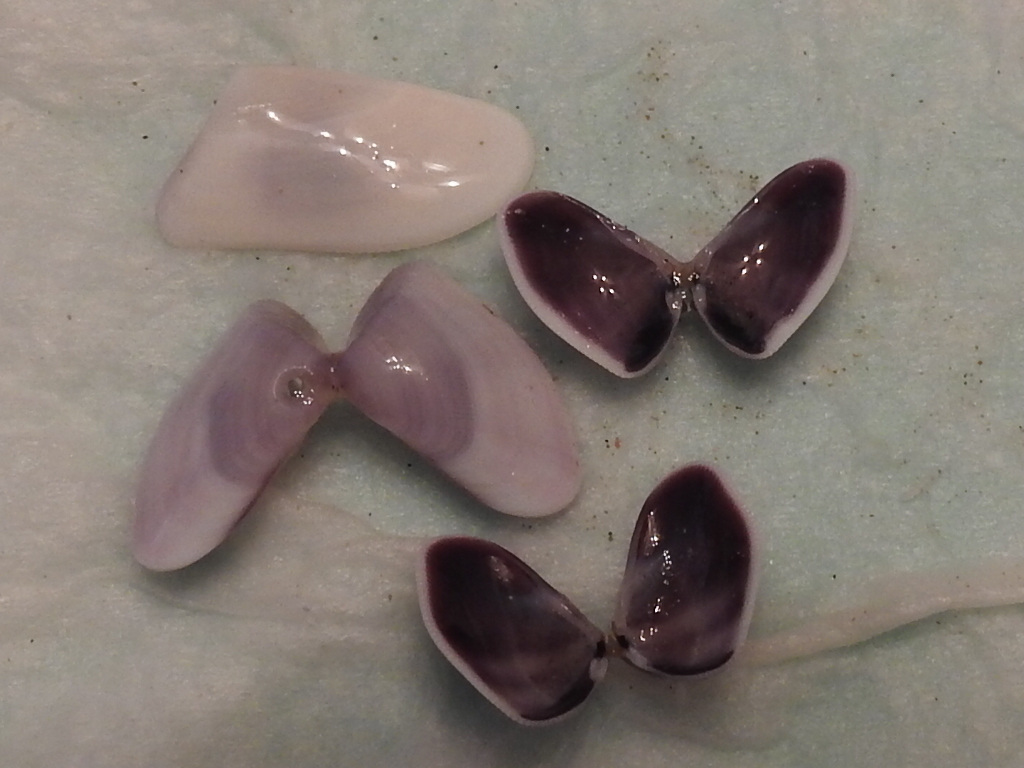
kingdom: Animalia
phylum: Mollusca
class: Bivalvia
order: Cardiida
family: Donacidae
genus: Donax
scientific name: Donax variabilis
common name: Butterfly shell
